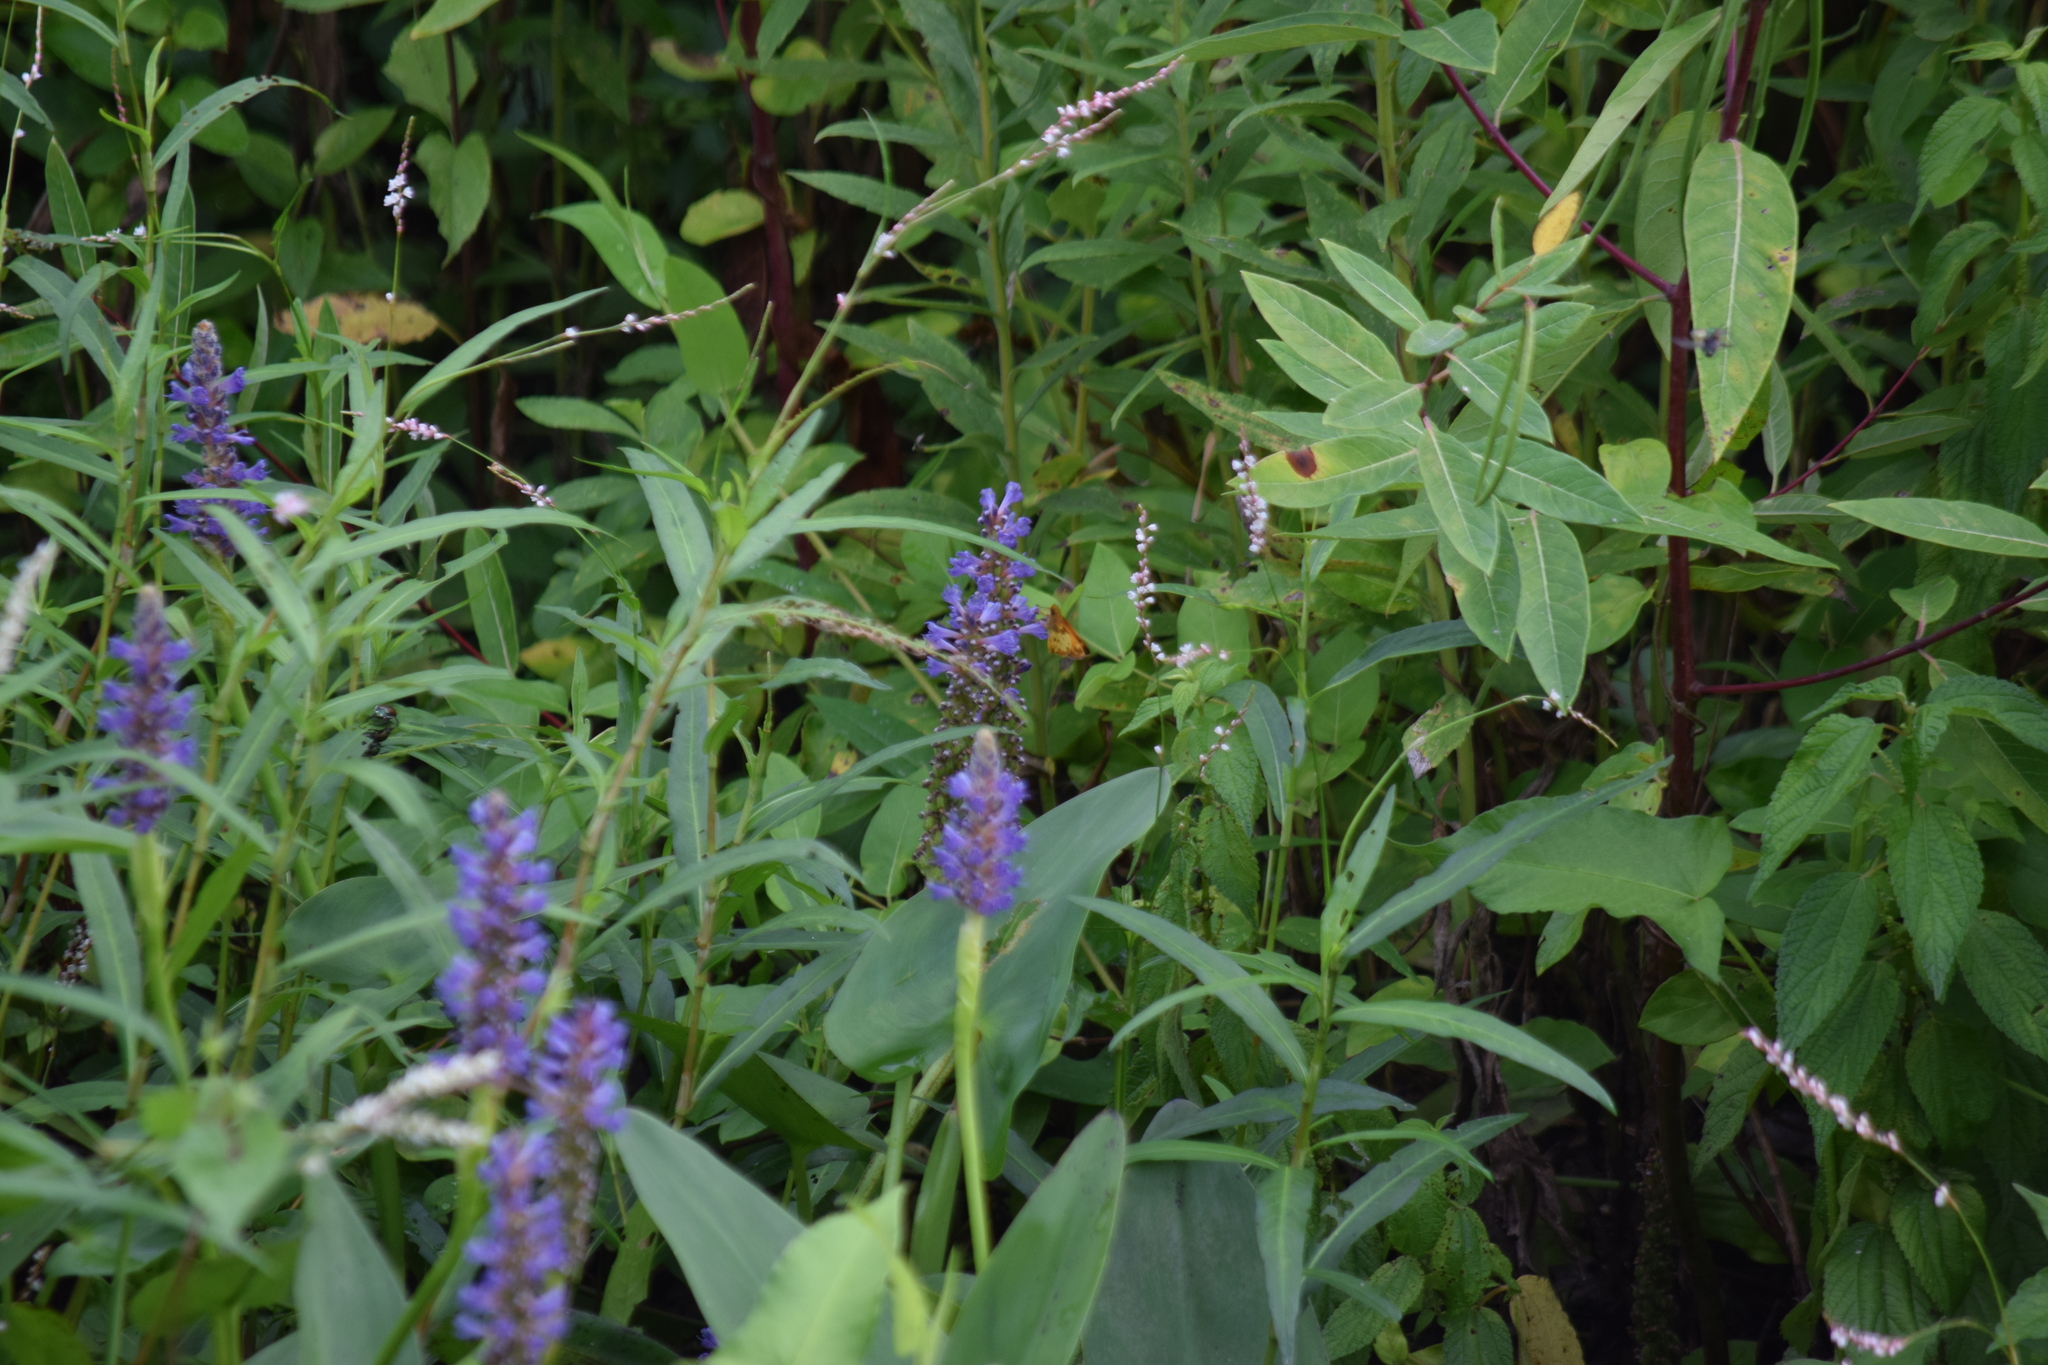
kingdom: Animalia
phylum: Arthropoda
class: Insecta
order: Lepidoptera
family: Hesperiidae
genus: Lon
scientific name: Lon zabulon
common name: Zabulon skipper
